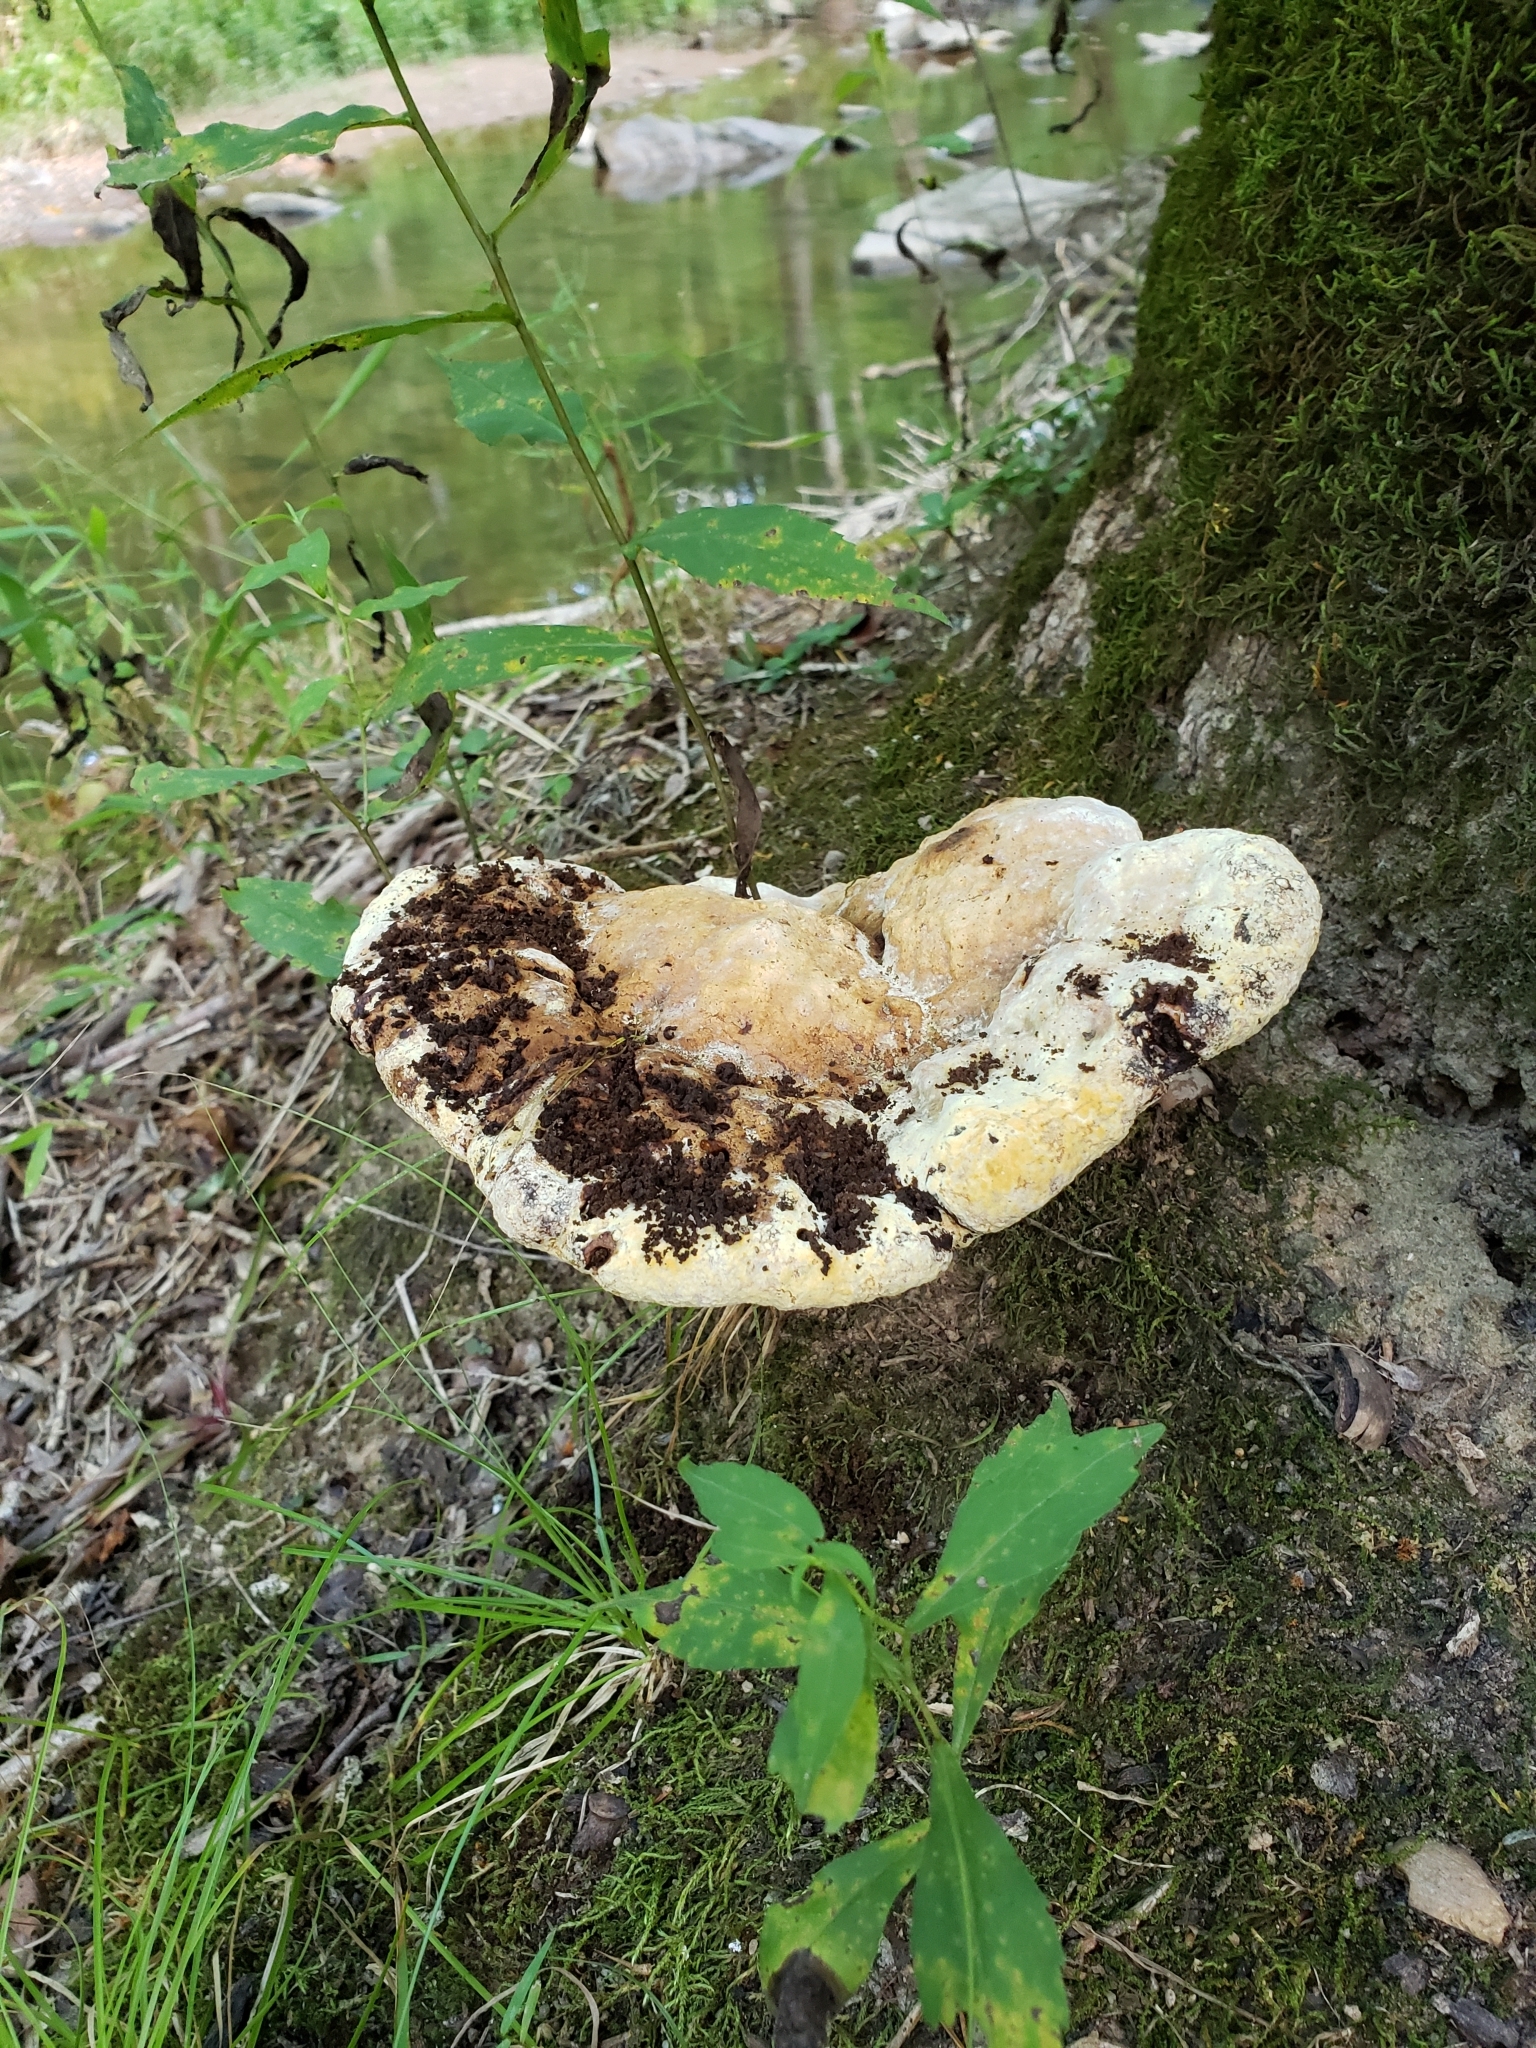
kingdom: Fungi
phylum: Basidiomycota
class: Agaricomycetes
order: Hymenochaetales
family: Hymenochaetaceae
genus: Pseudoinonotus
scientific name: Pseudoinonotus dryadeus
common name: Oak bracket
